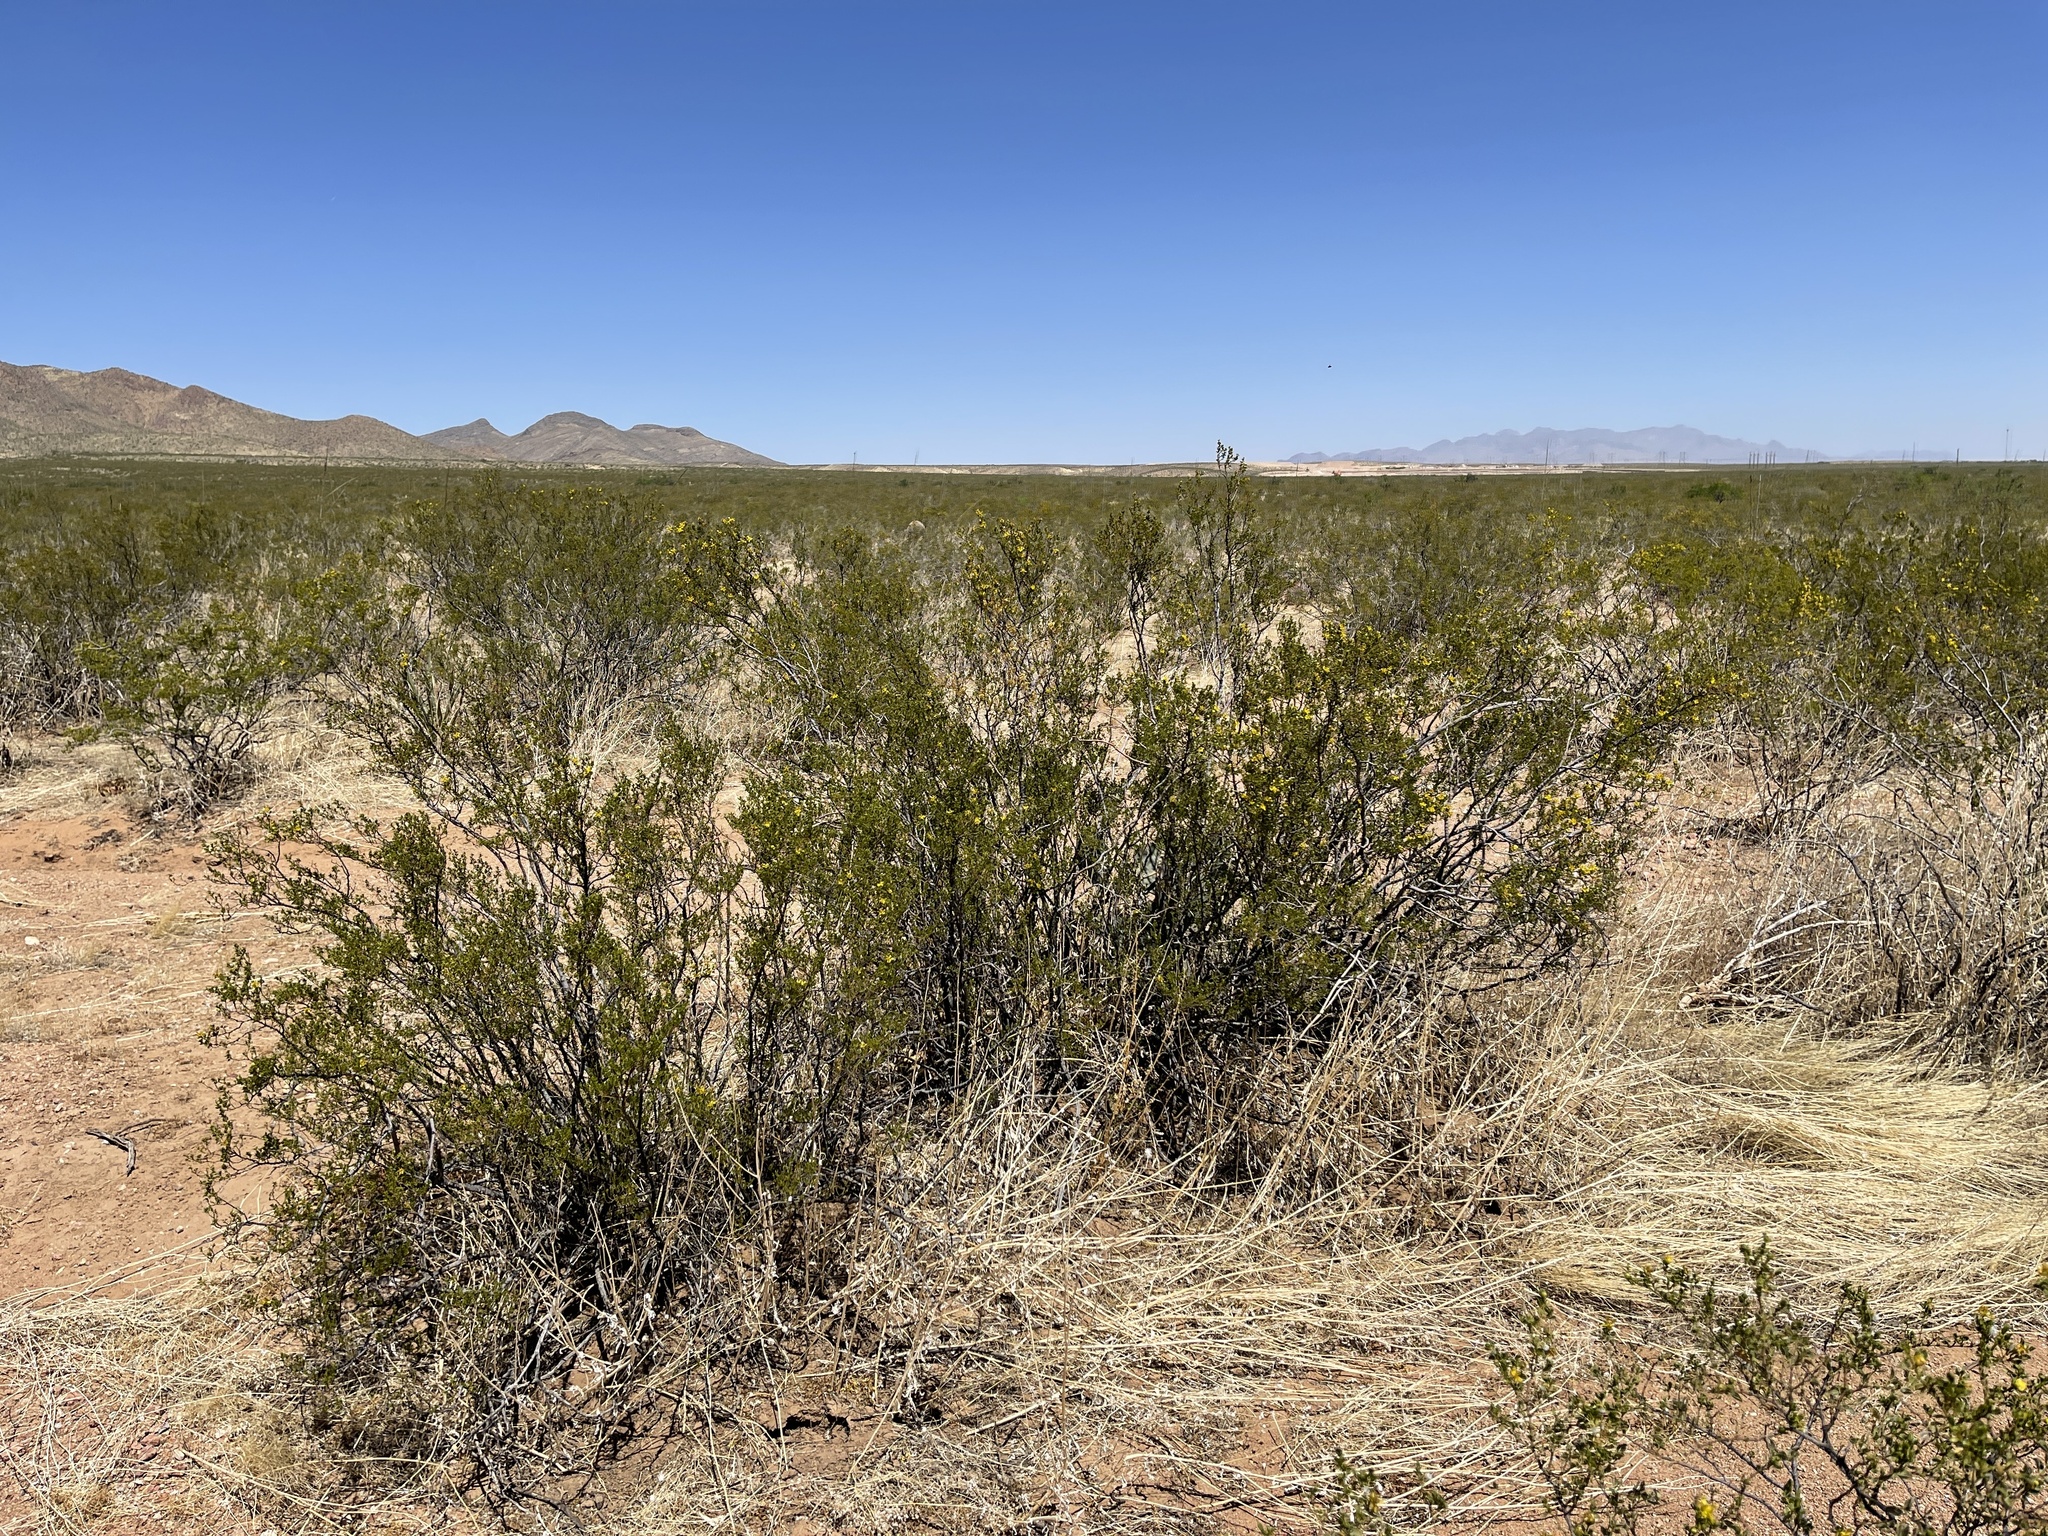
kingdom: Plantae
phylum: Tracheophyta
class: Magnoliopsida
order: Zygophyllales
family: Zygophyllaceae
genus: Larrea
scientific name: Larrea tridentata
